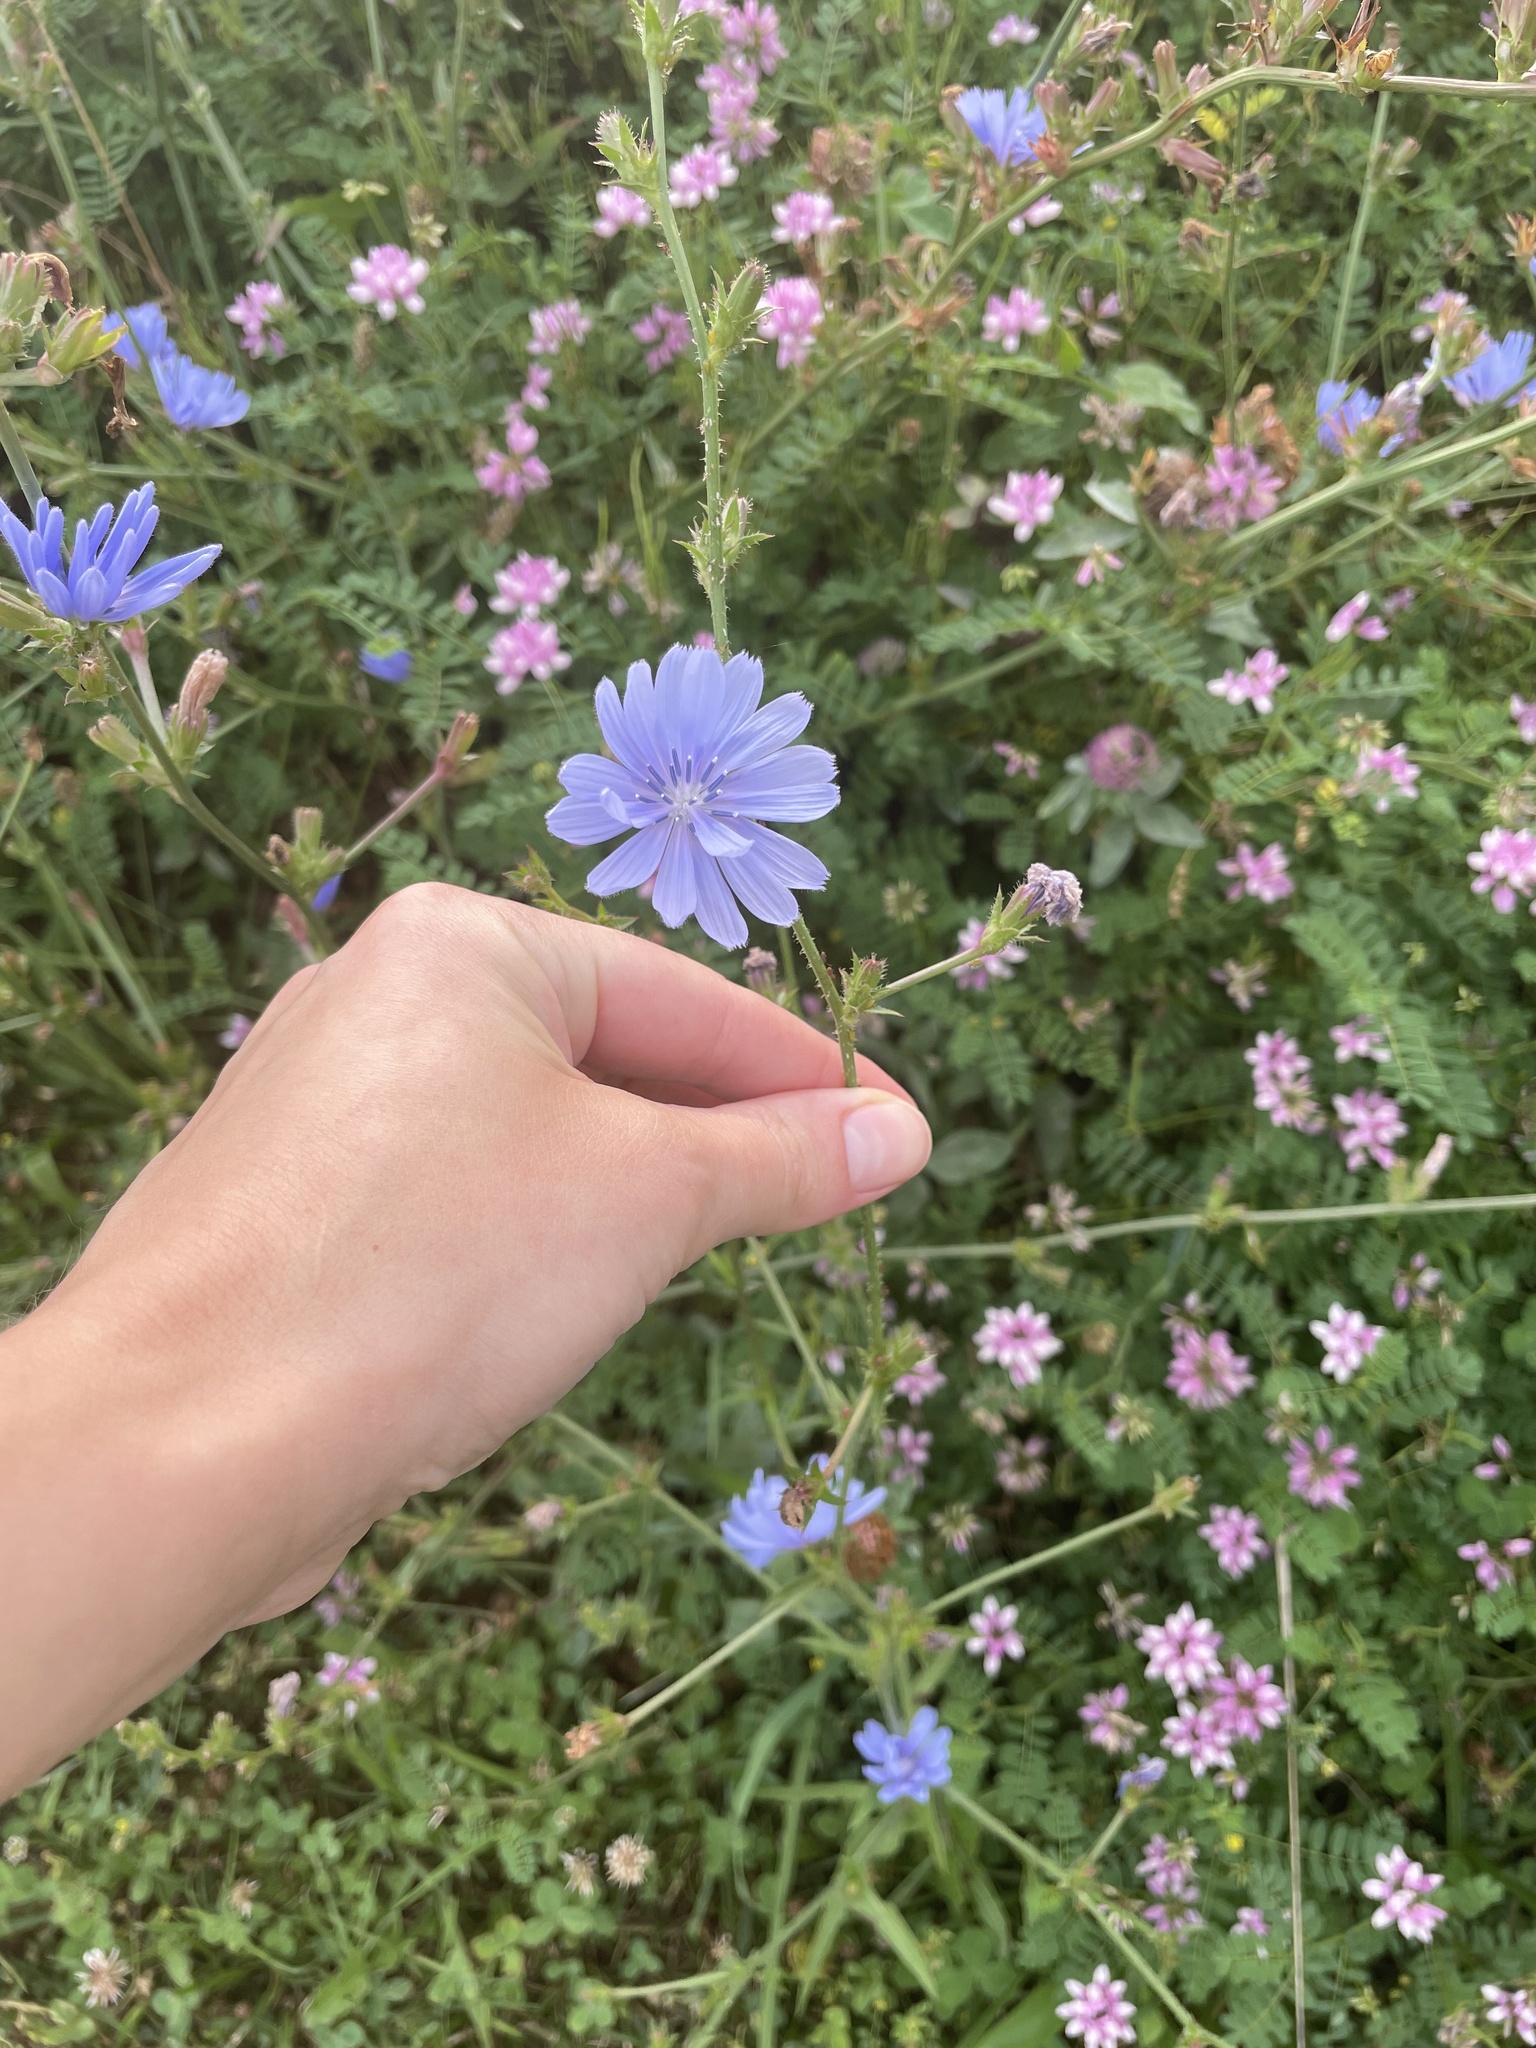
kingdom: Plantae
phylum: Tracheophyta
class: Magnoliopsida
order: Asterales
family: Asteraceae
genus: Cichorium
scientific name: Cichorium intybus
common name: Chicory
